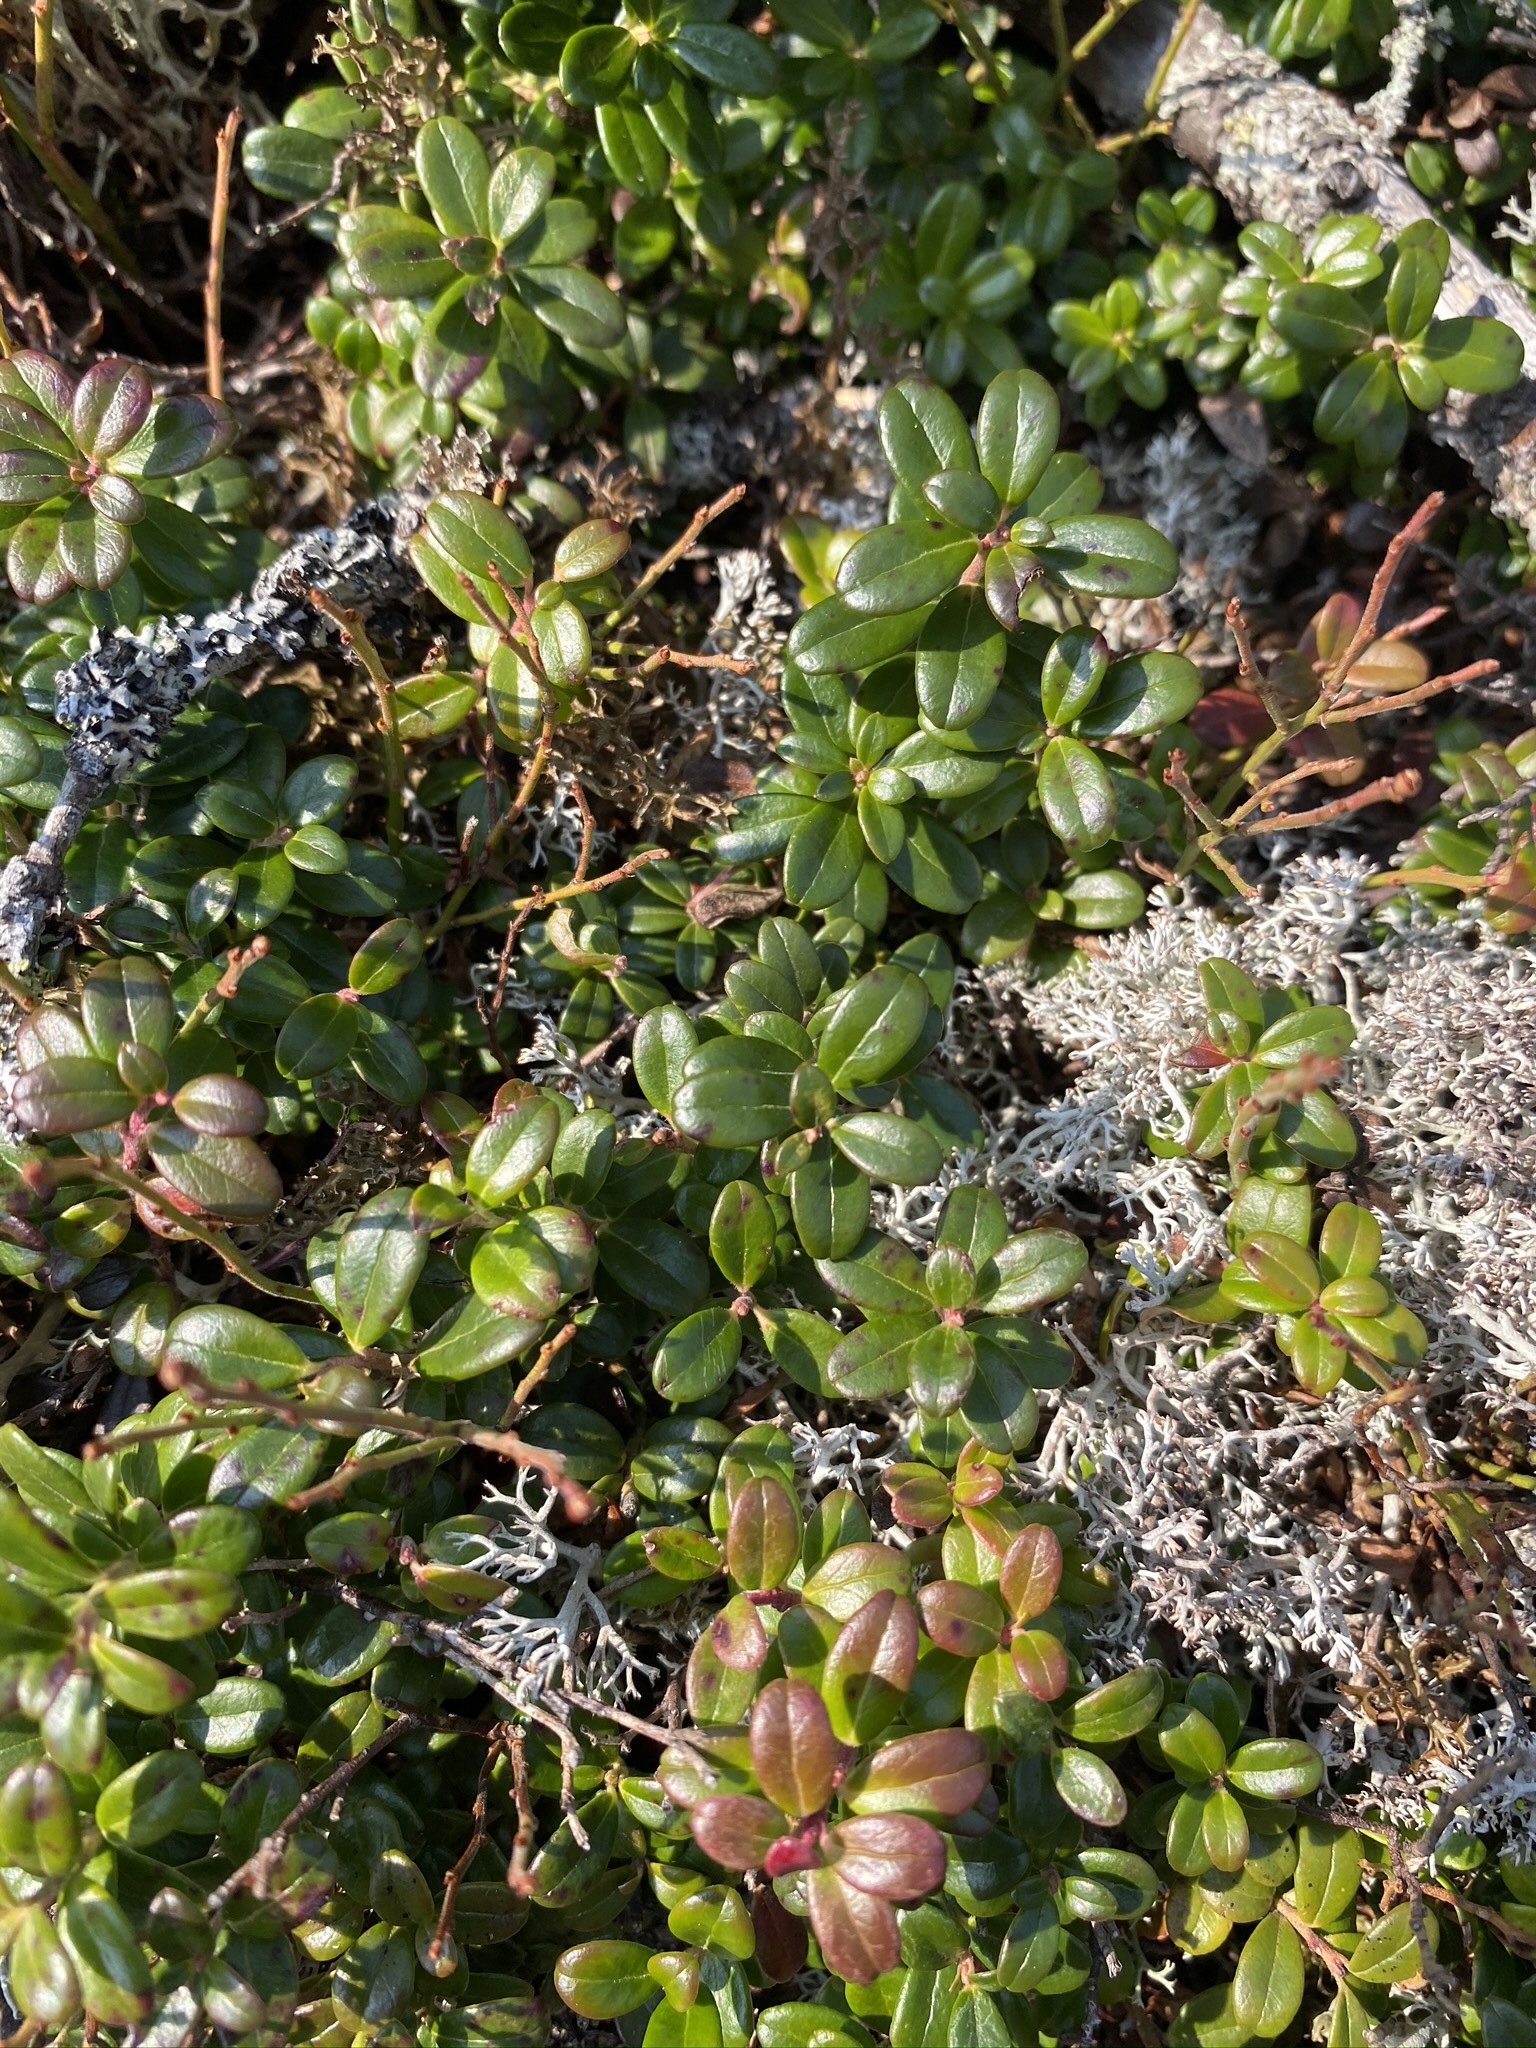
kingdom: Plantae
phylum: Tracheophyta
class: Magnoliopsida
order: Ericales
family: Ericaceae
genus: Vaccinium
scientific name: Vaccinium vitis-idaea
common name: Cowberry
